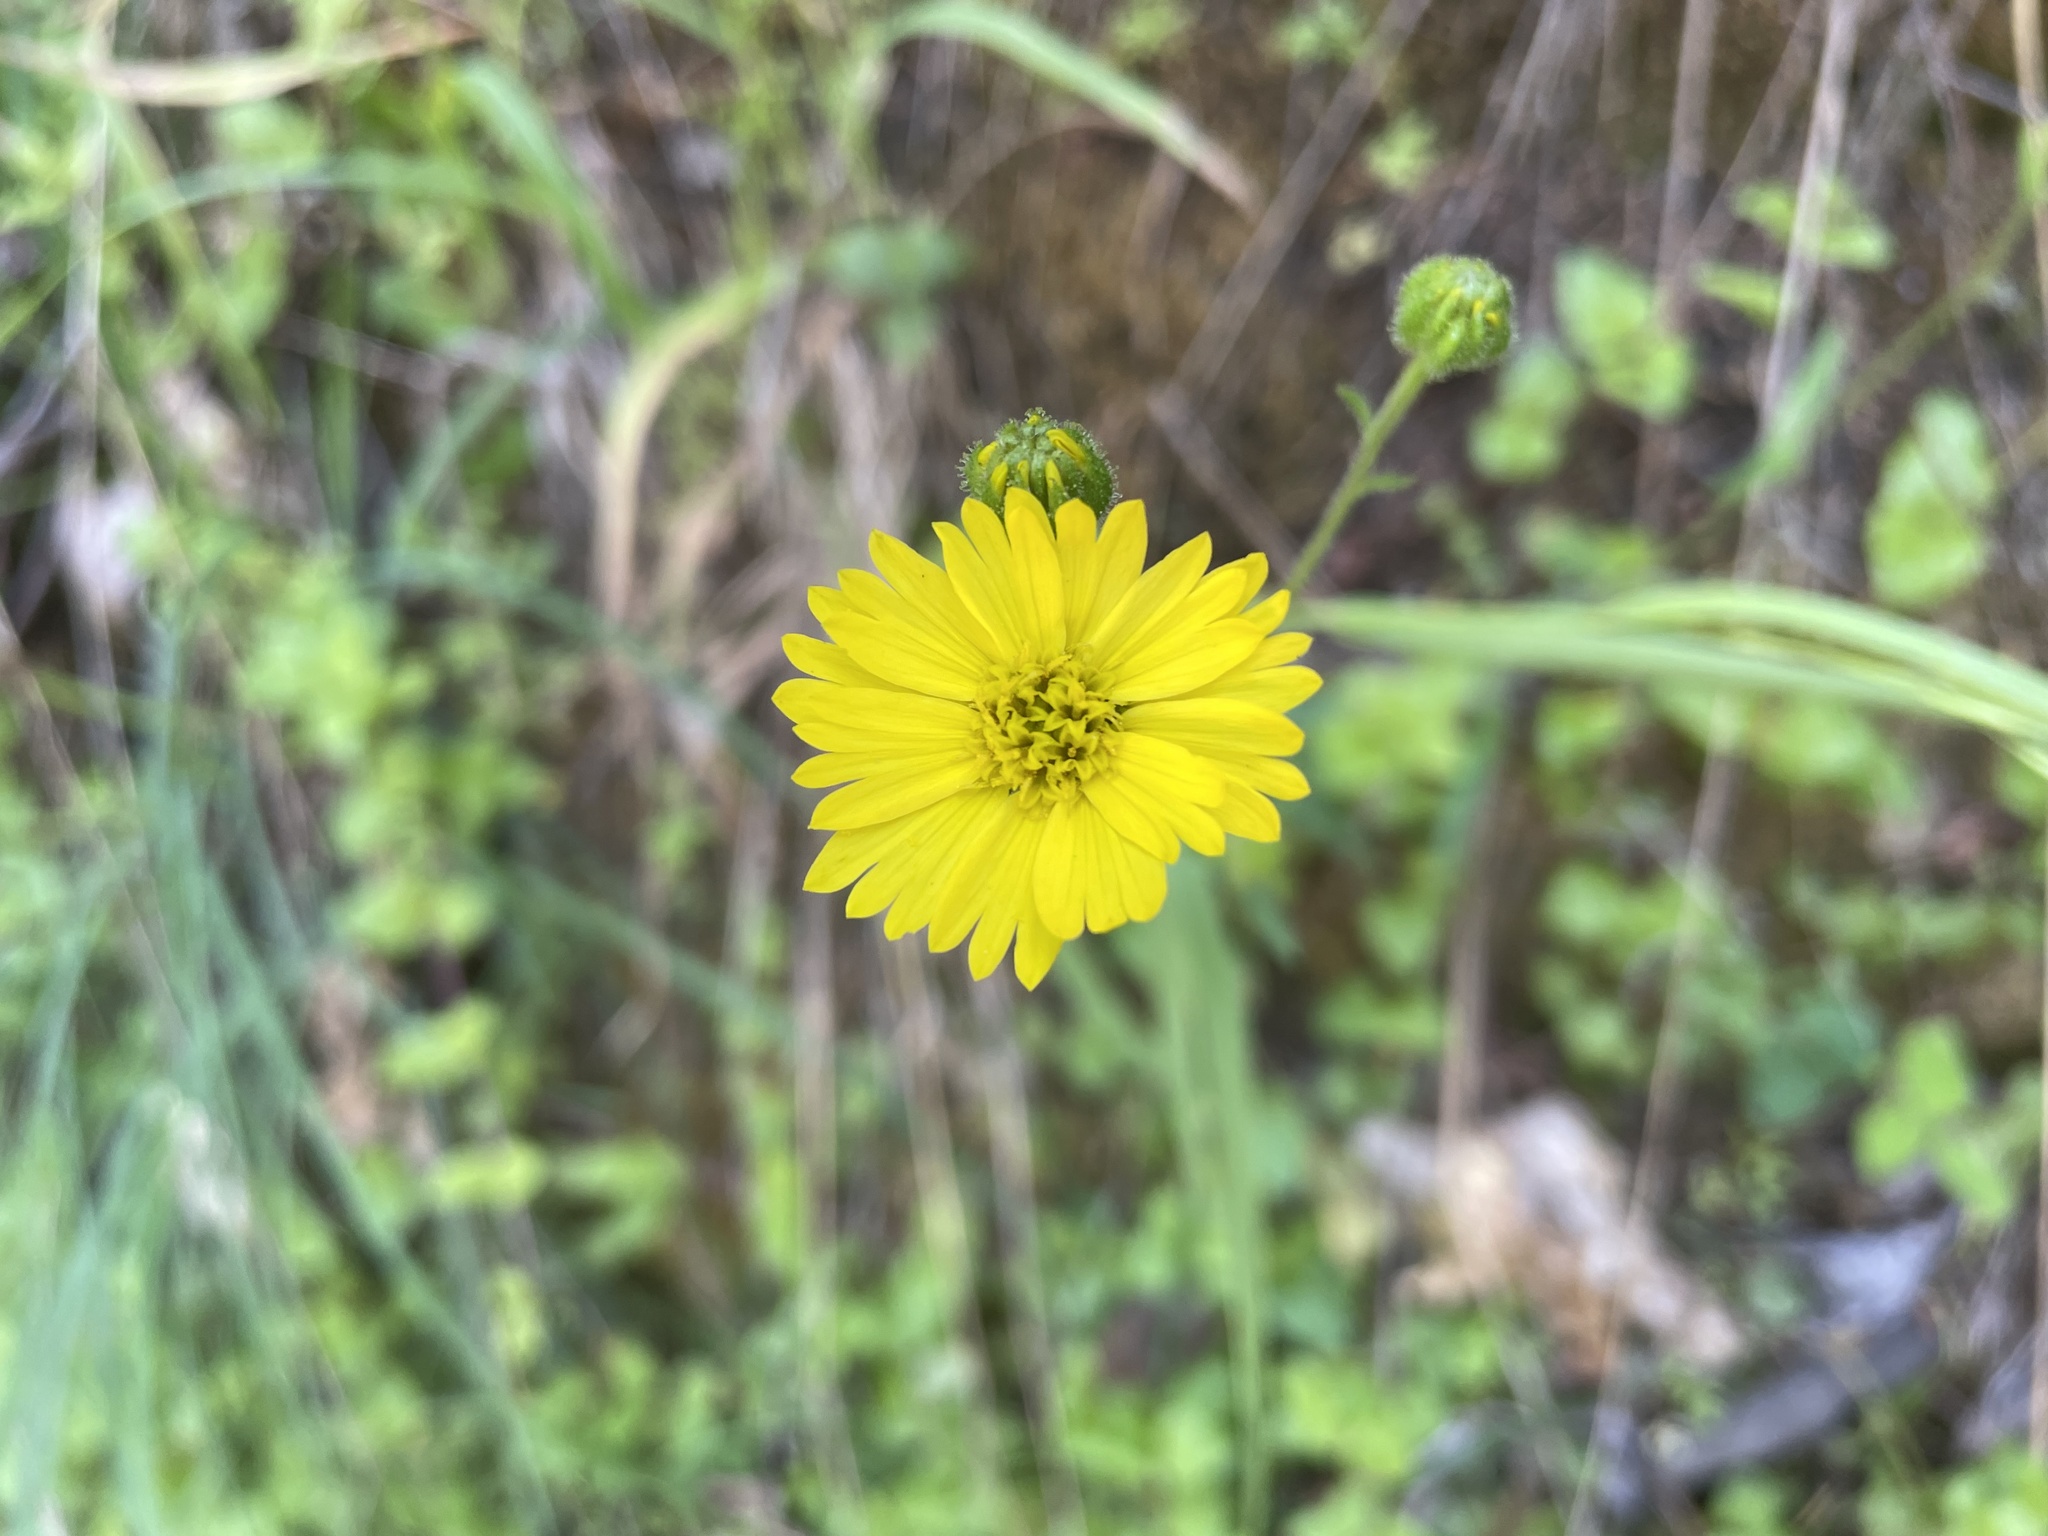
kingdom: Plantae
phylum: Tracheophyta
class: Magnoliopsida
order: Asterales
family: Asteraceae
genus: Anisocarpus
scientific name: Anisocarpus madioides
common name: Woodland madia
